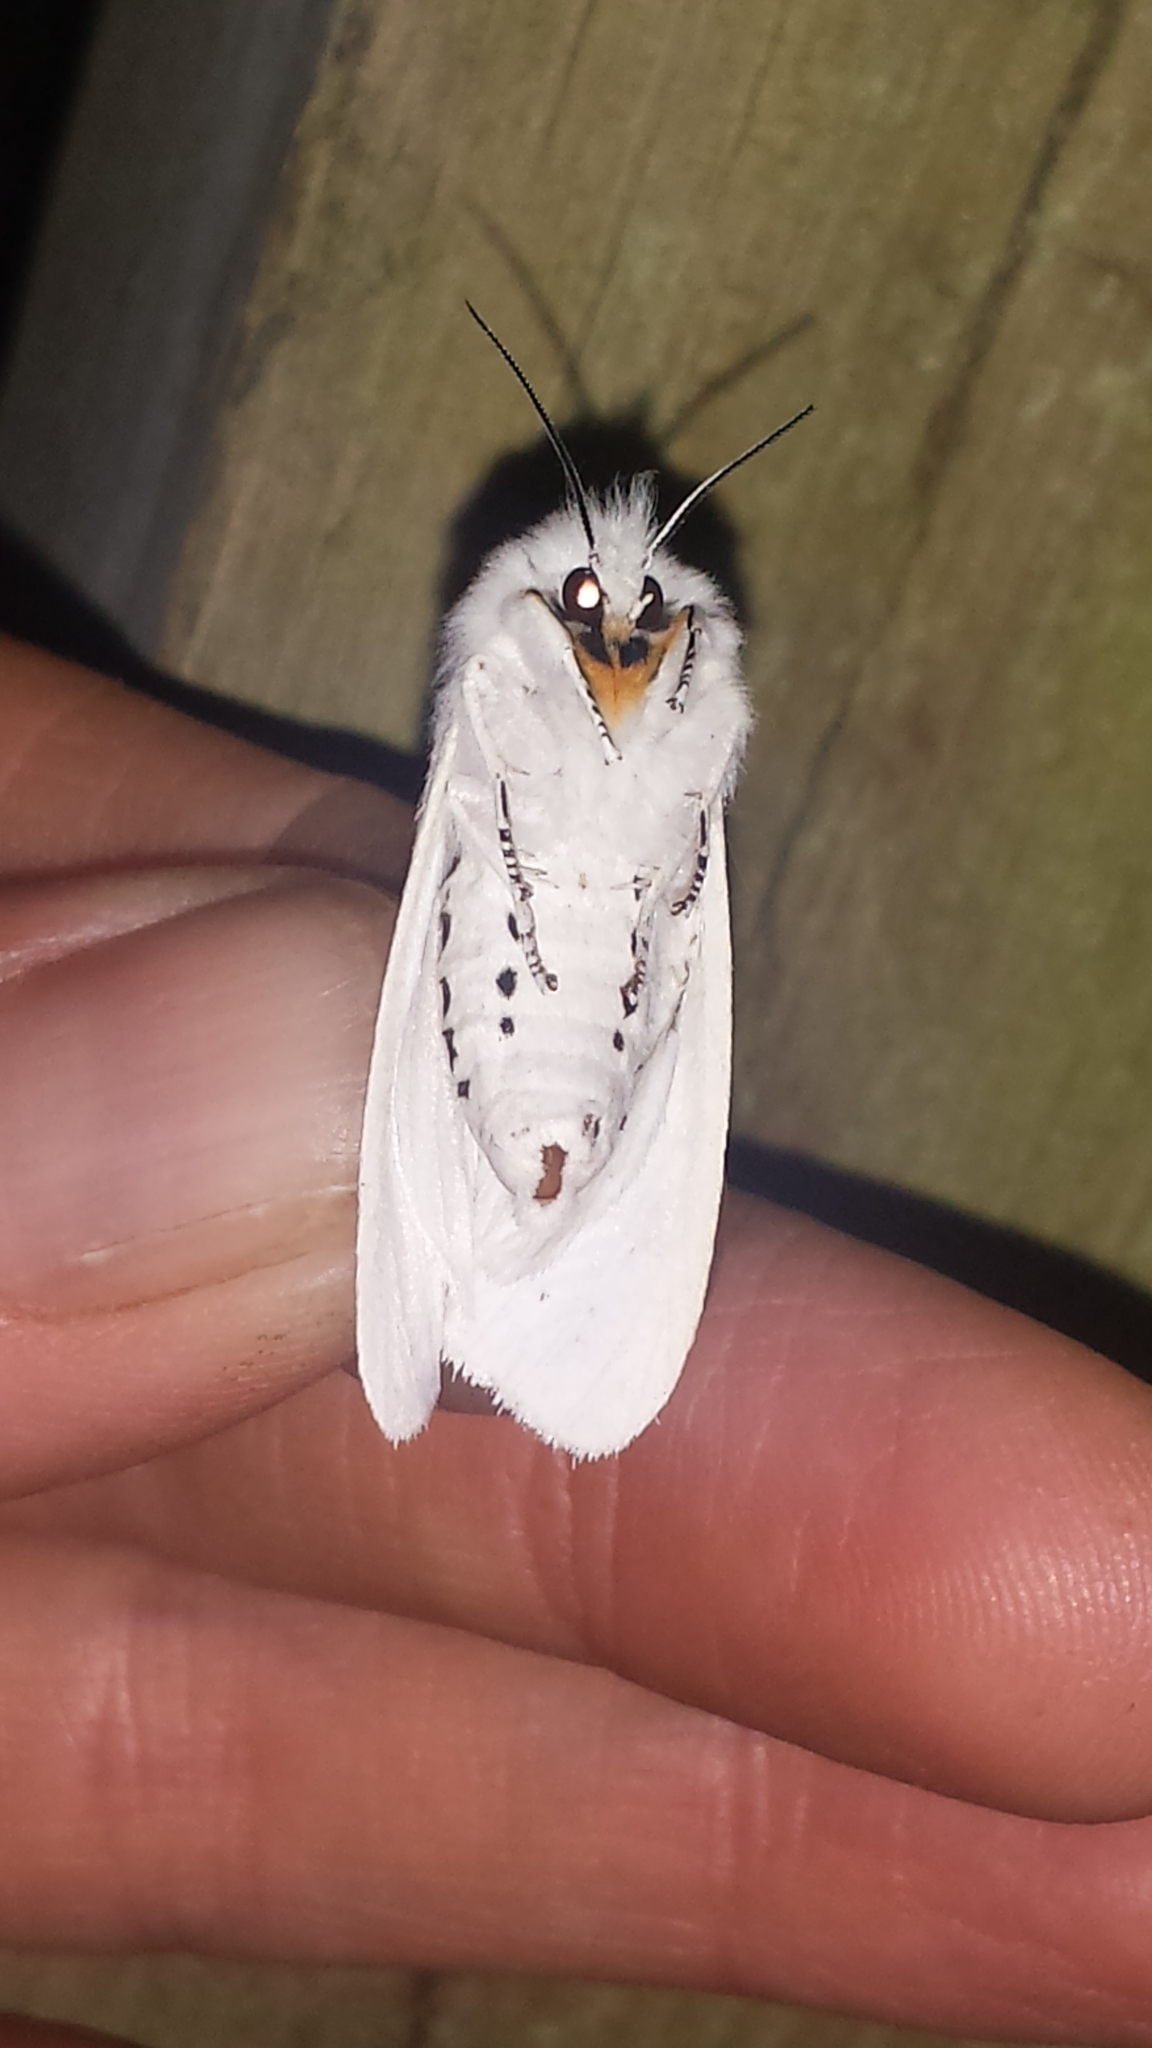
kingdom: Animalia
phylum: Arthropoda
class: Insecta
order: Lepidoptera
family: Erebidae
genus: Spilosoma
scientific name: Spilosoma virginica
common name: Virginia tiger moth
